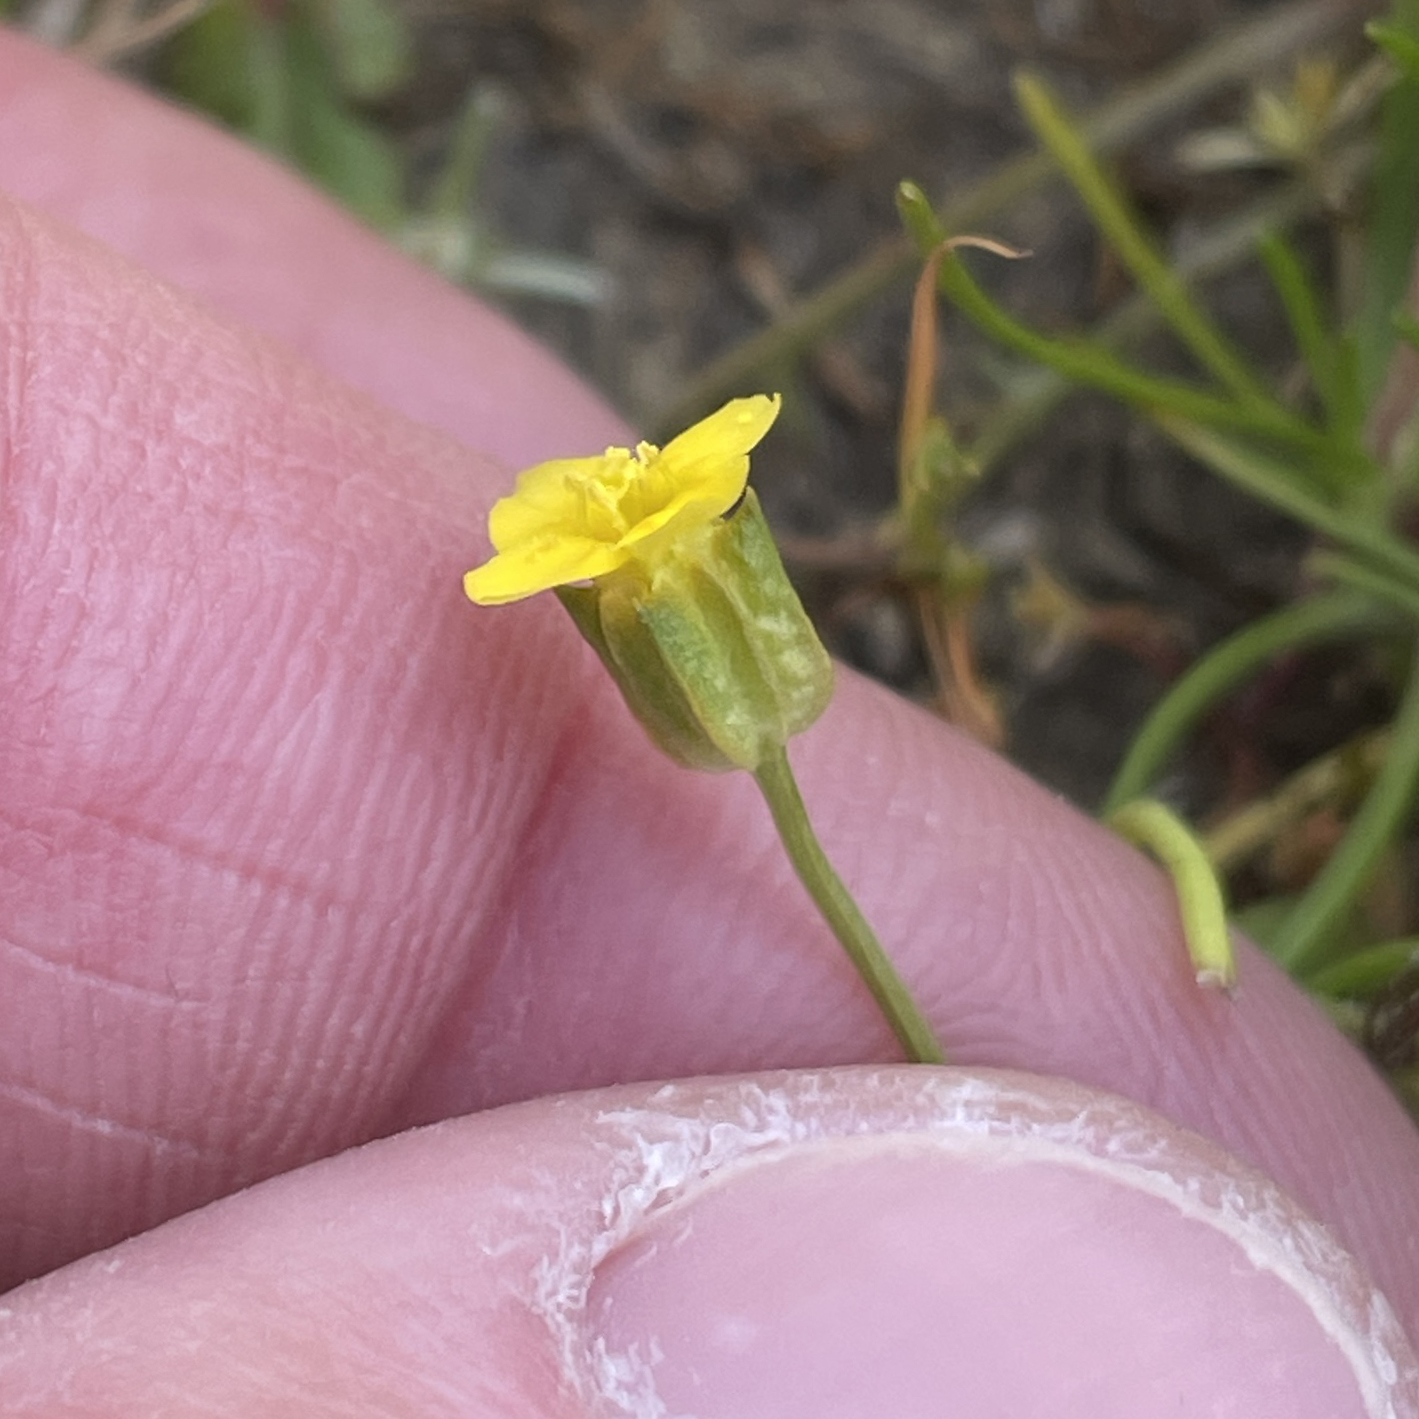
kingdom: Plantae
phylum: Tracheophyta
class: Magnoliopsida
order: Gentianales
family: Gentianaceae
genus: Microcala
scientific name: Microcala quadrangularis
